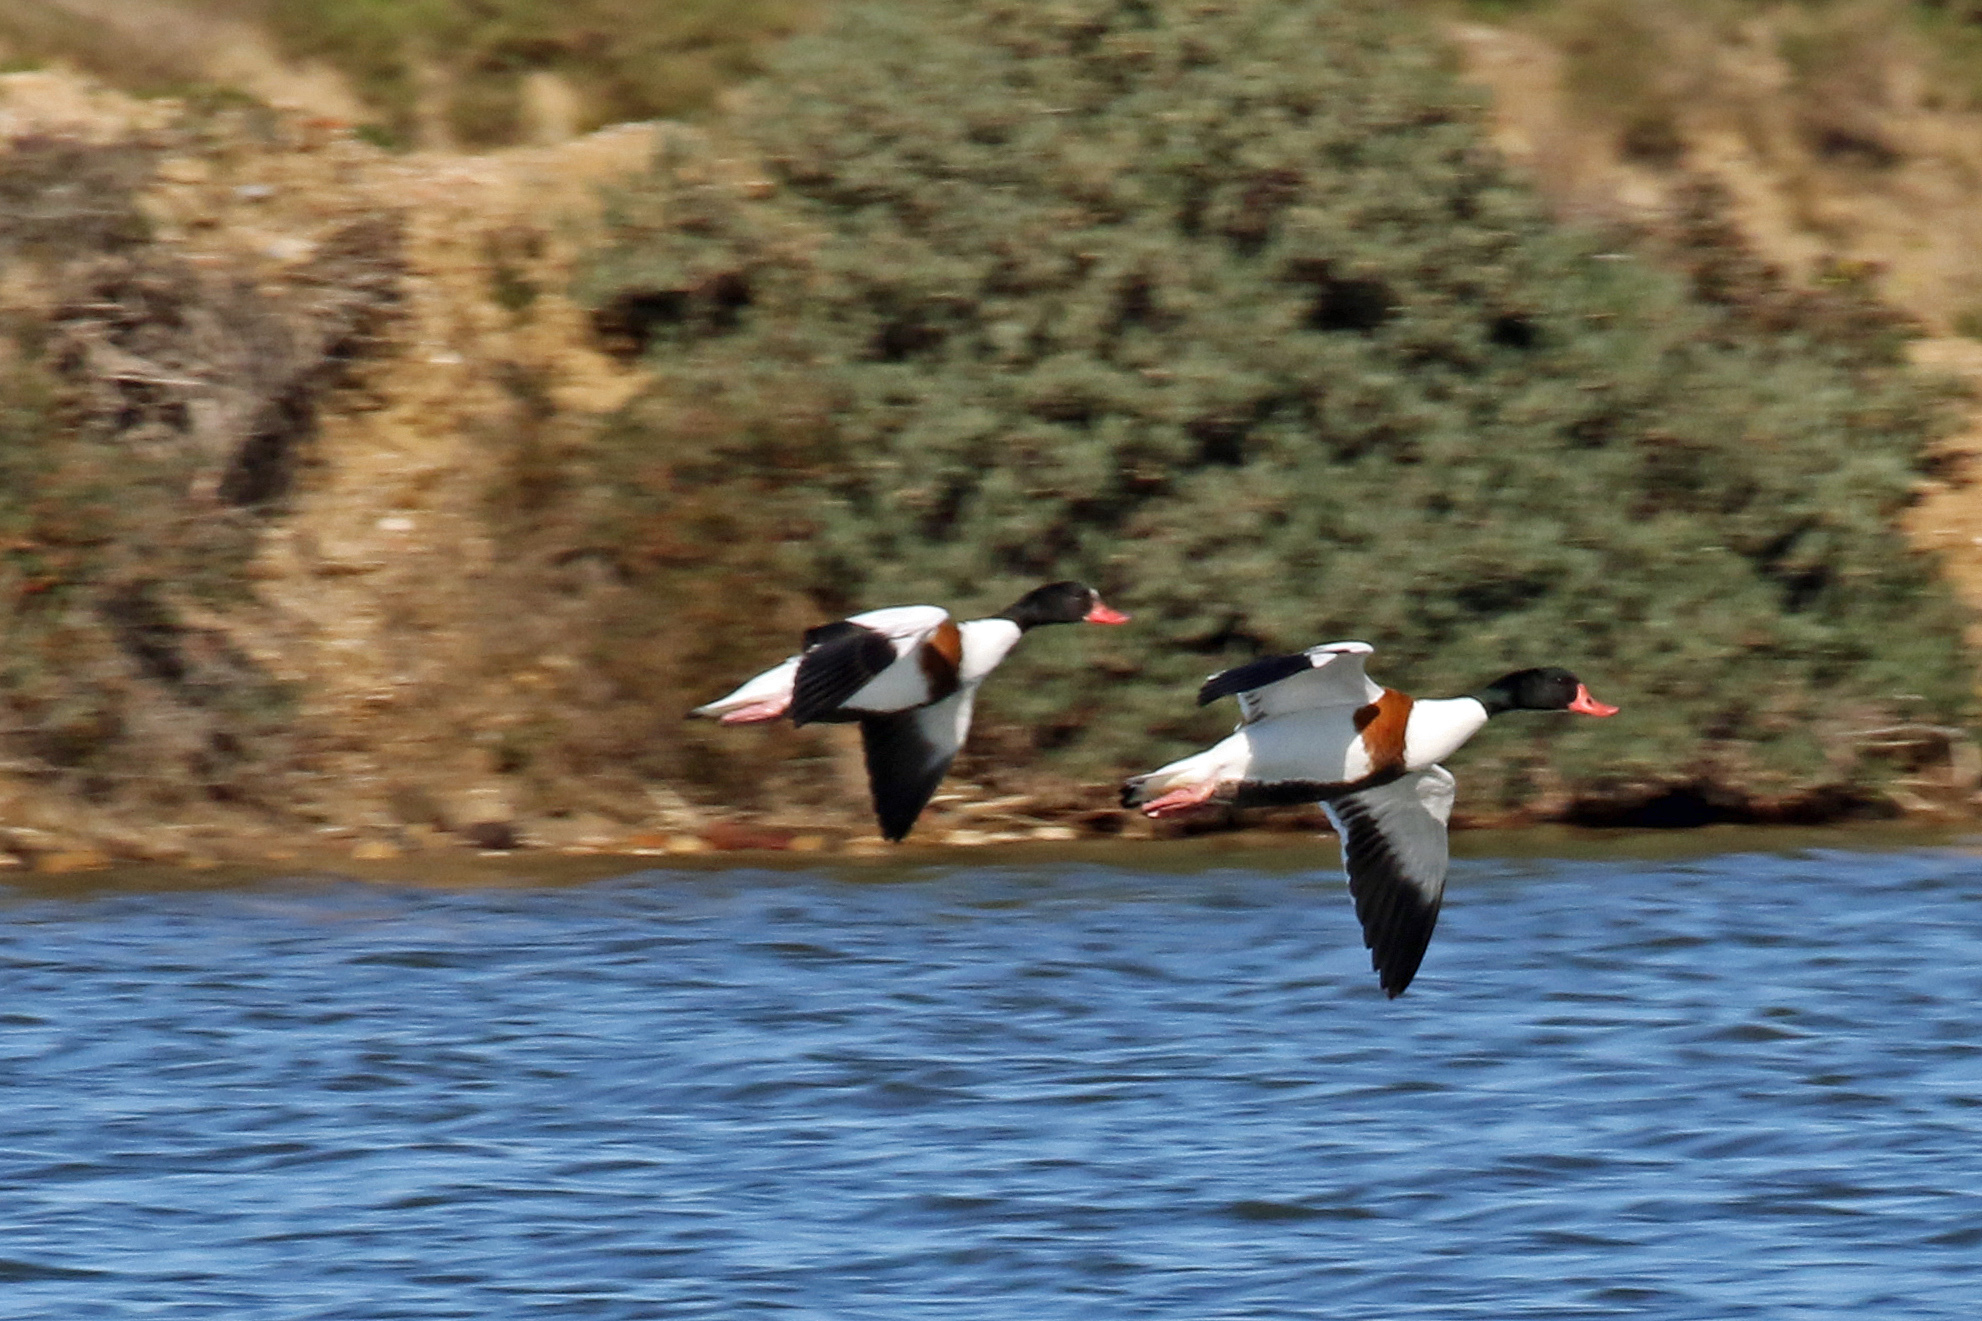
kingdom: Animalia
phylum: Chordata
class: Aves
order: Anseriformes
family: Anatidae
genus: Tadorna
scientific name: Tadorna tadorna
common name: Common shelduck
